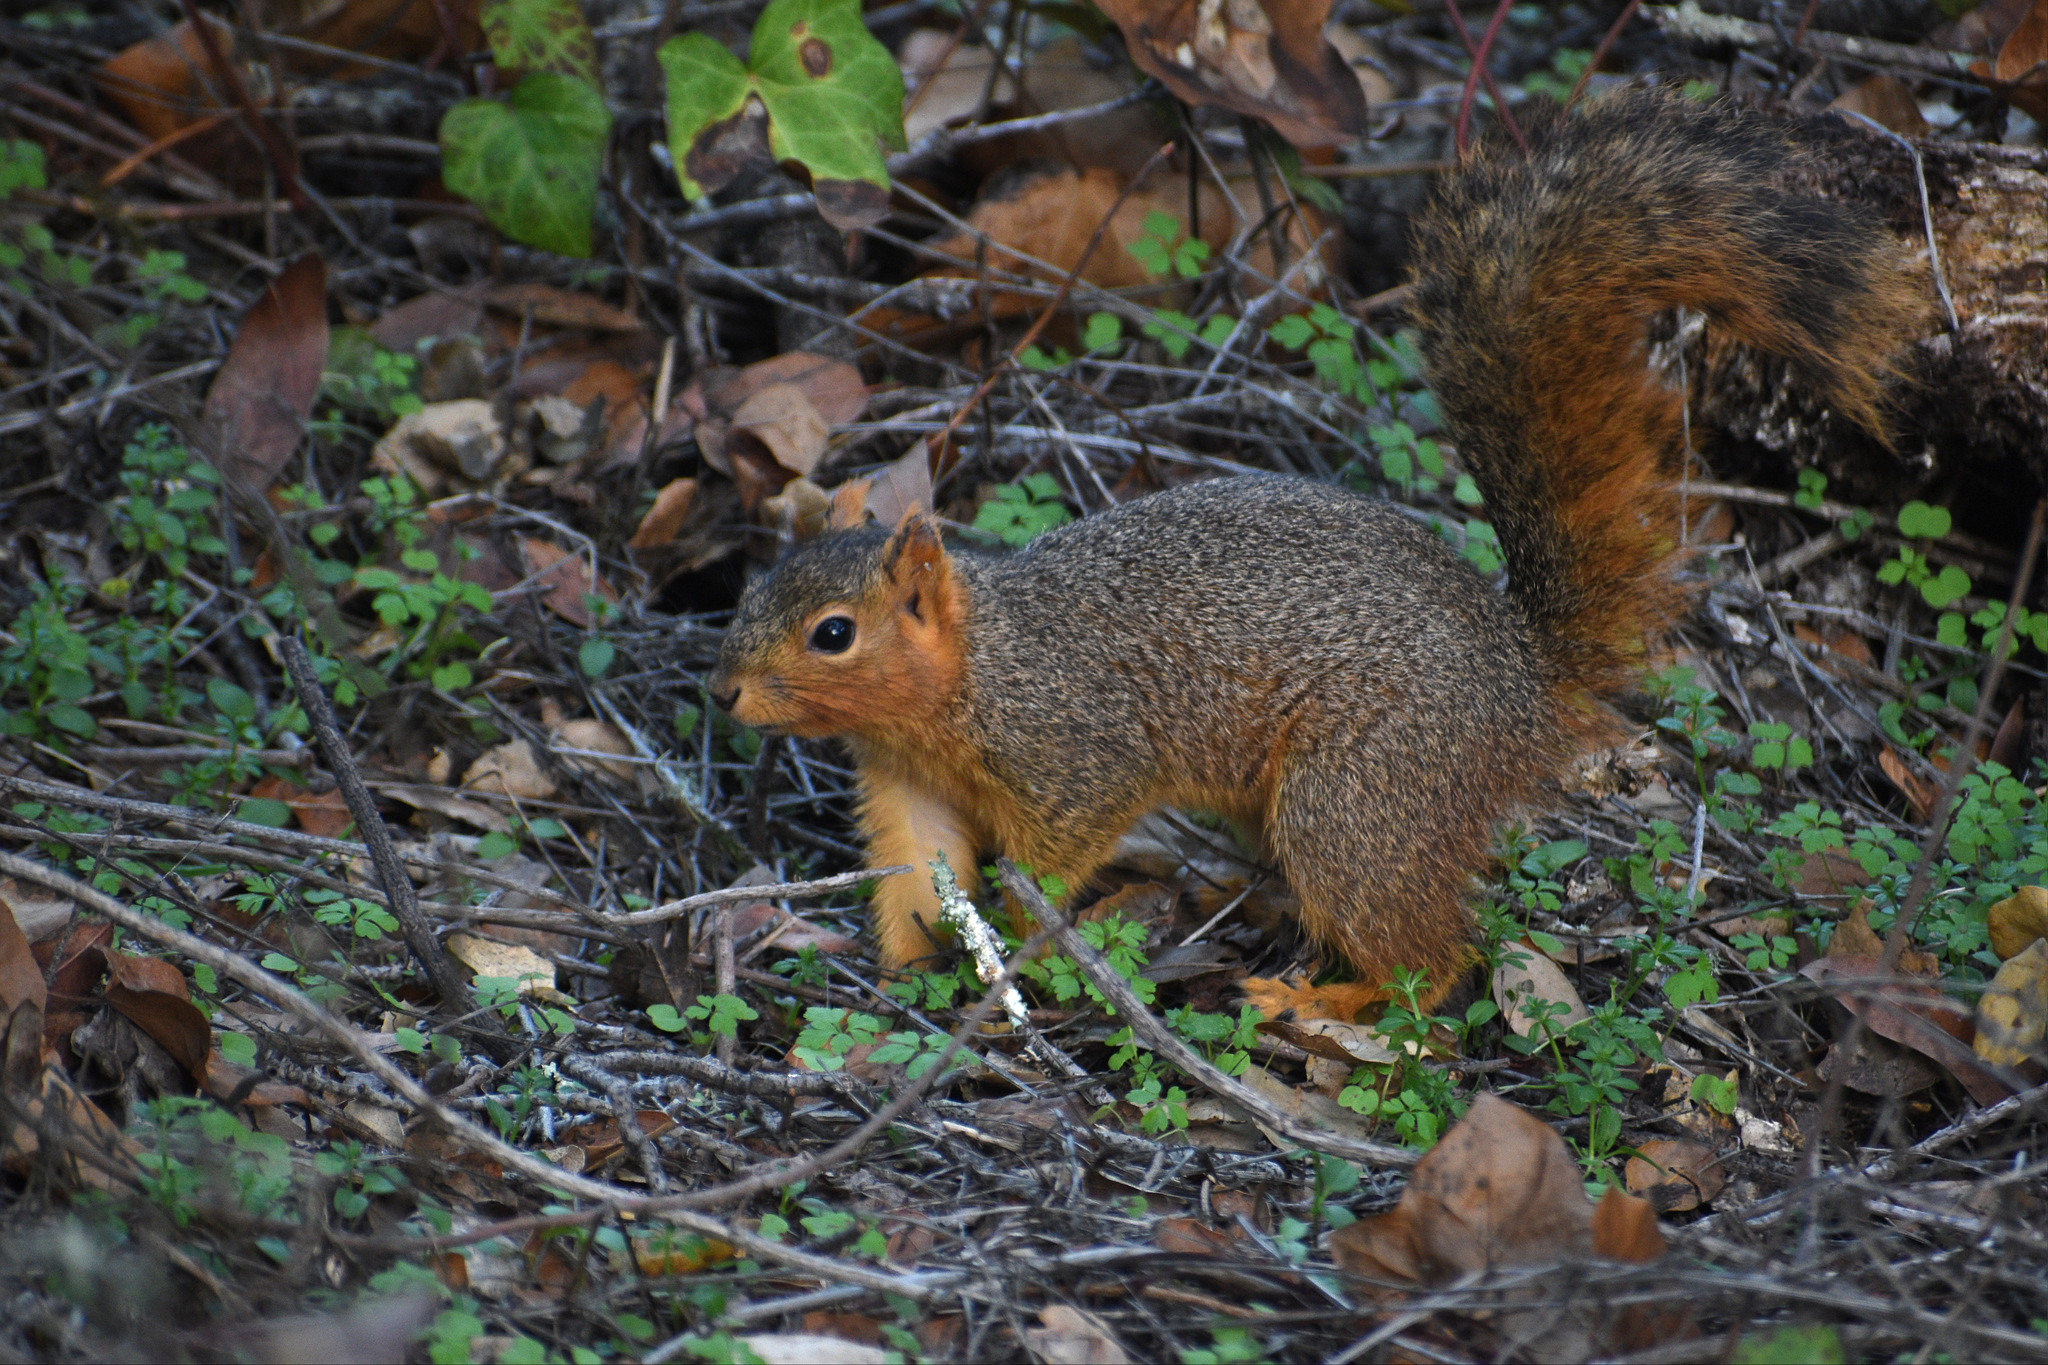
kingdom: Animalia
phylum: Chordata
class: Mammalia
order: Rodentia
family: Sciuridae
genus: Sciurus
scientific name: Sciurus niger
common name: Fox squirrel
